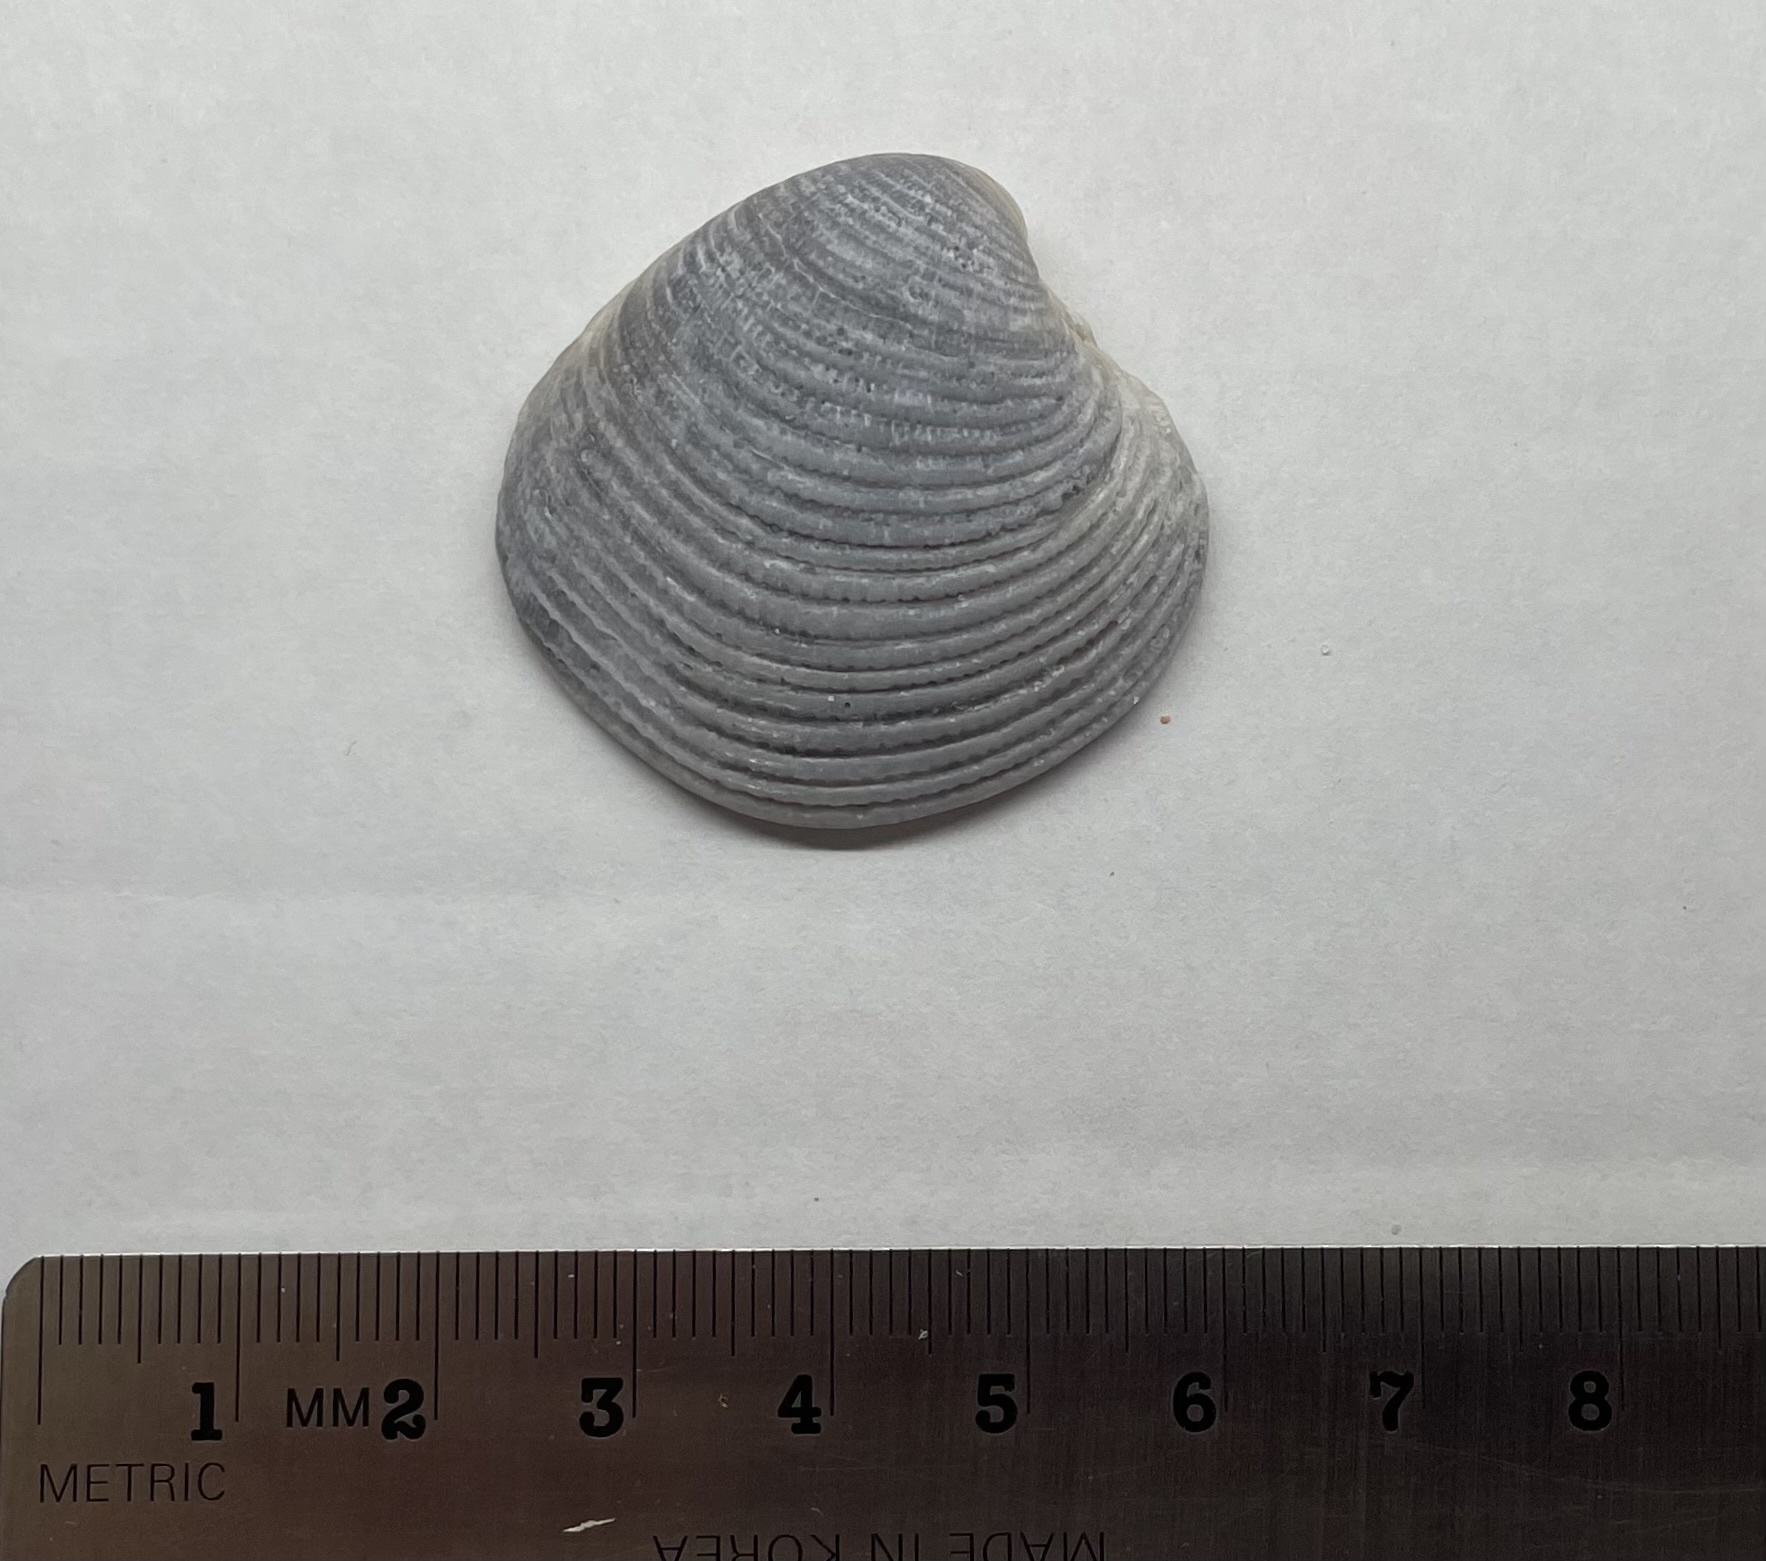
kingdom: Animalia
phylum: Mollusca
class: Bivalvia
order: Venerida
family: Veneridae
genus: Chionopsis
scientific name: Chionopsis intapurpurea
